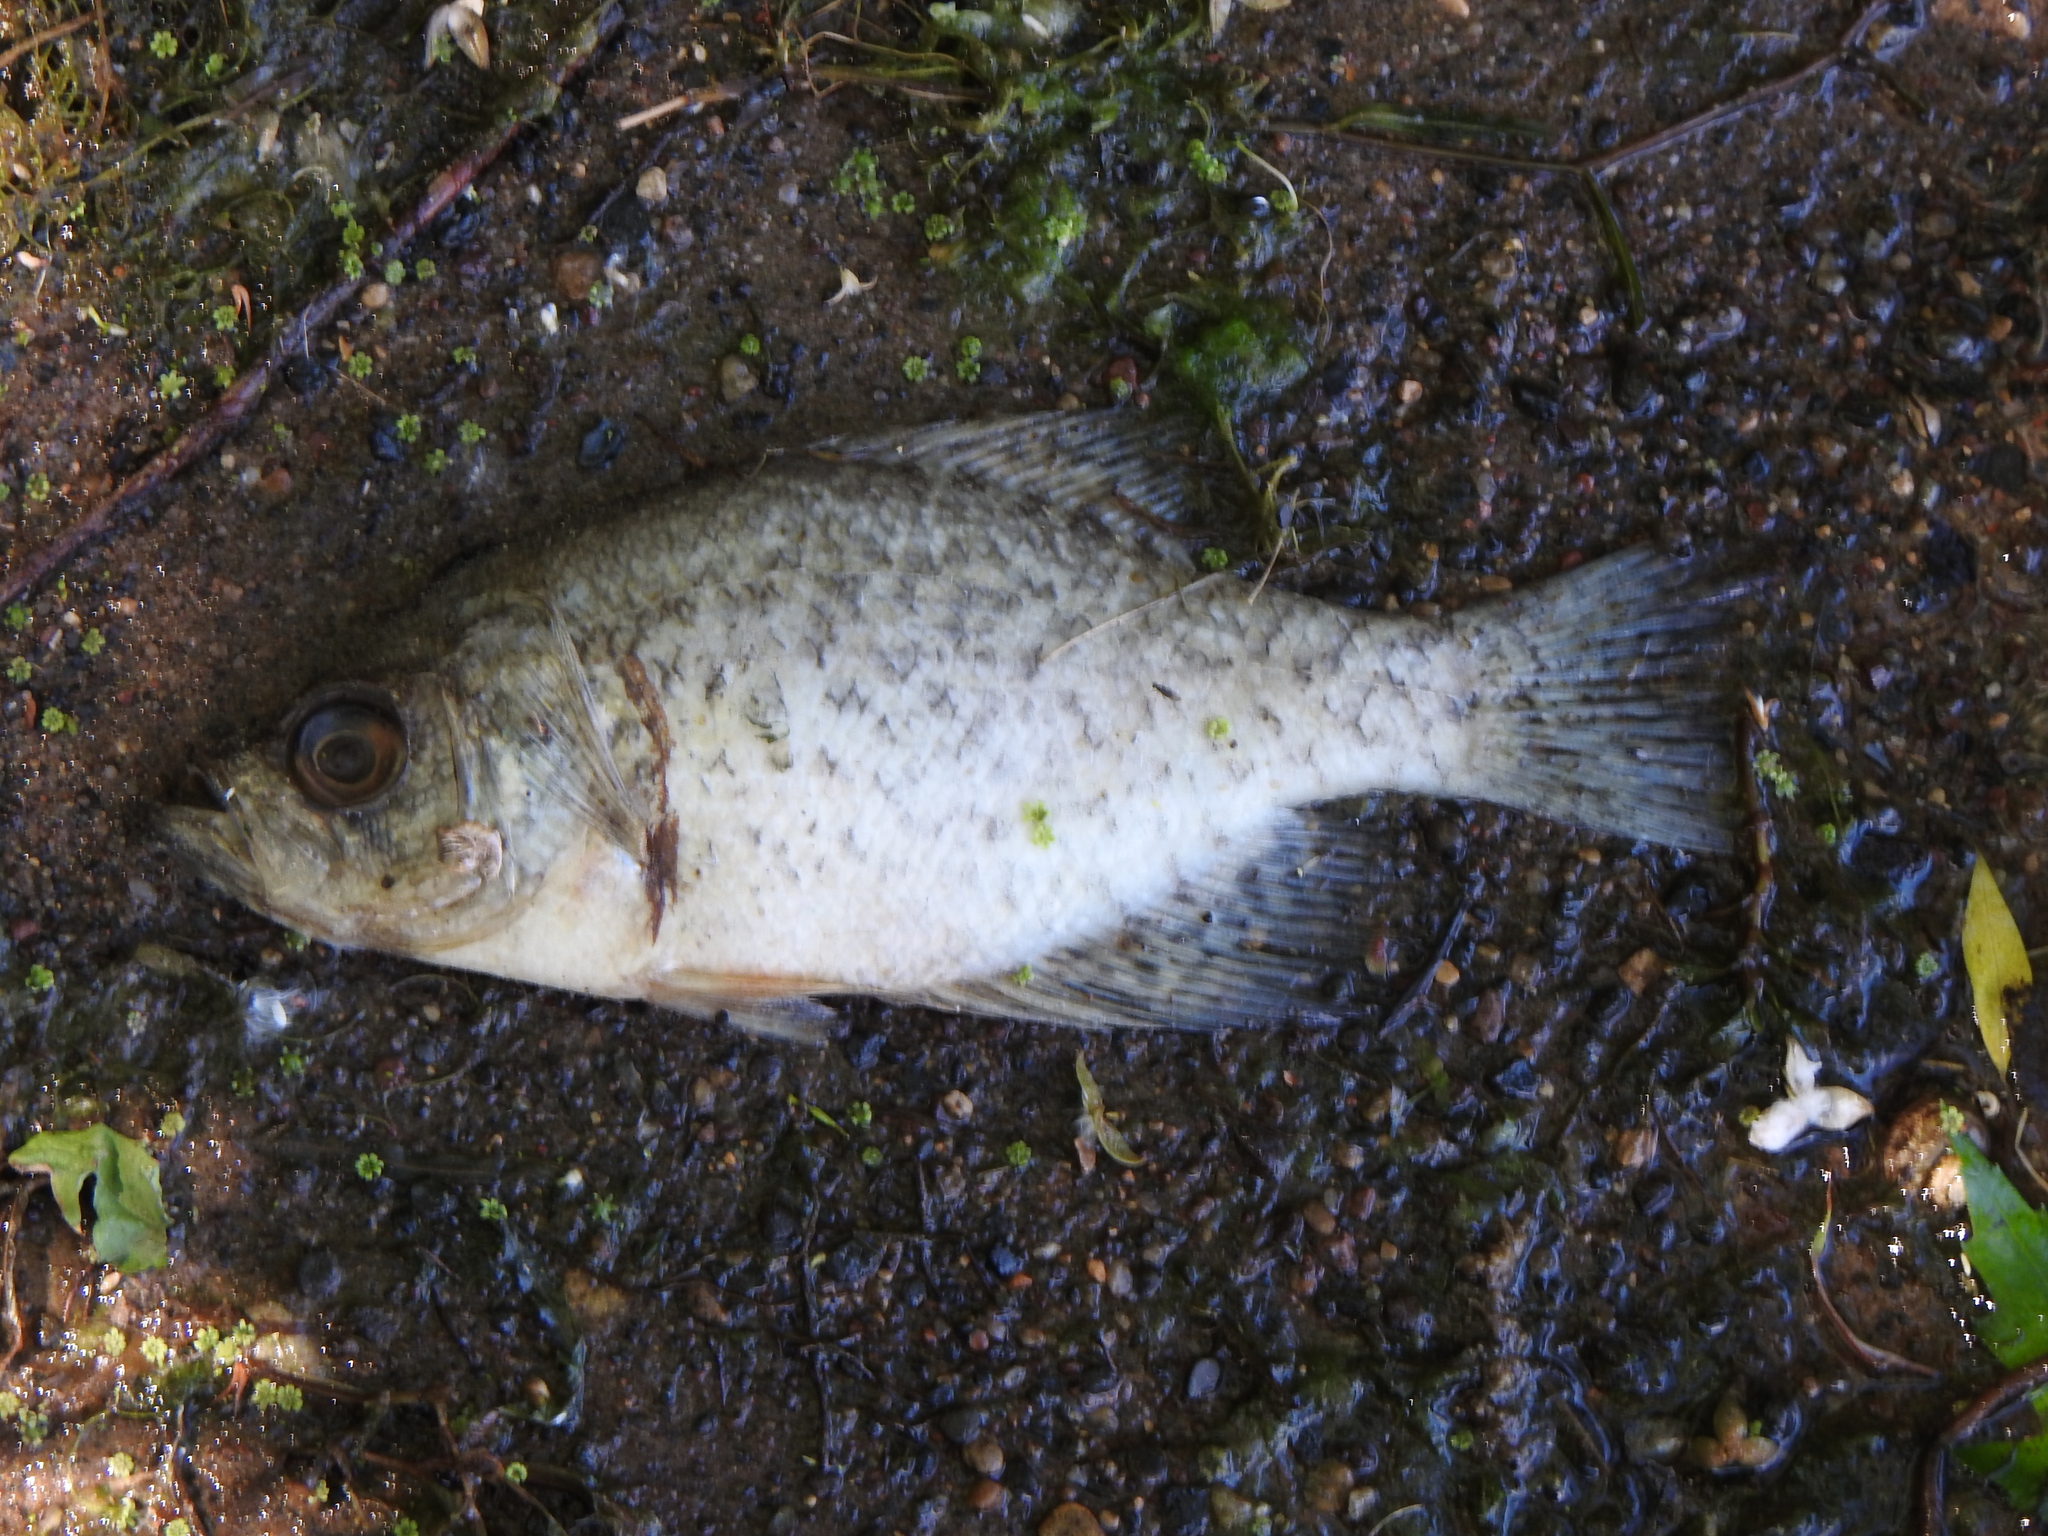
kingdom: Animalia
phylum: Chordata
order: Perciformes
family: Centrarchidae
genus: Pomoxis
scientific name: Pomoxis nigromaculatus
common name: Black crappie
